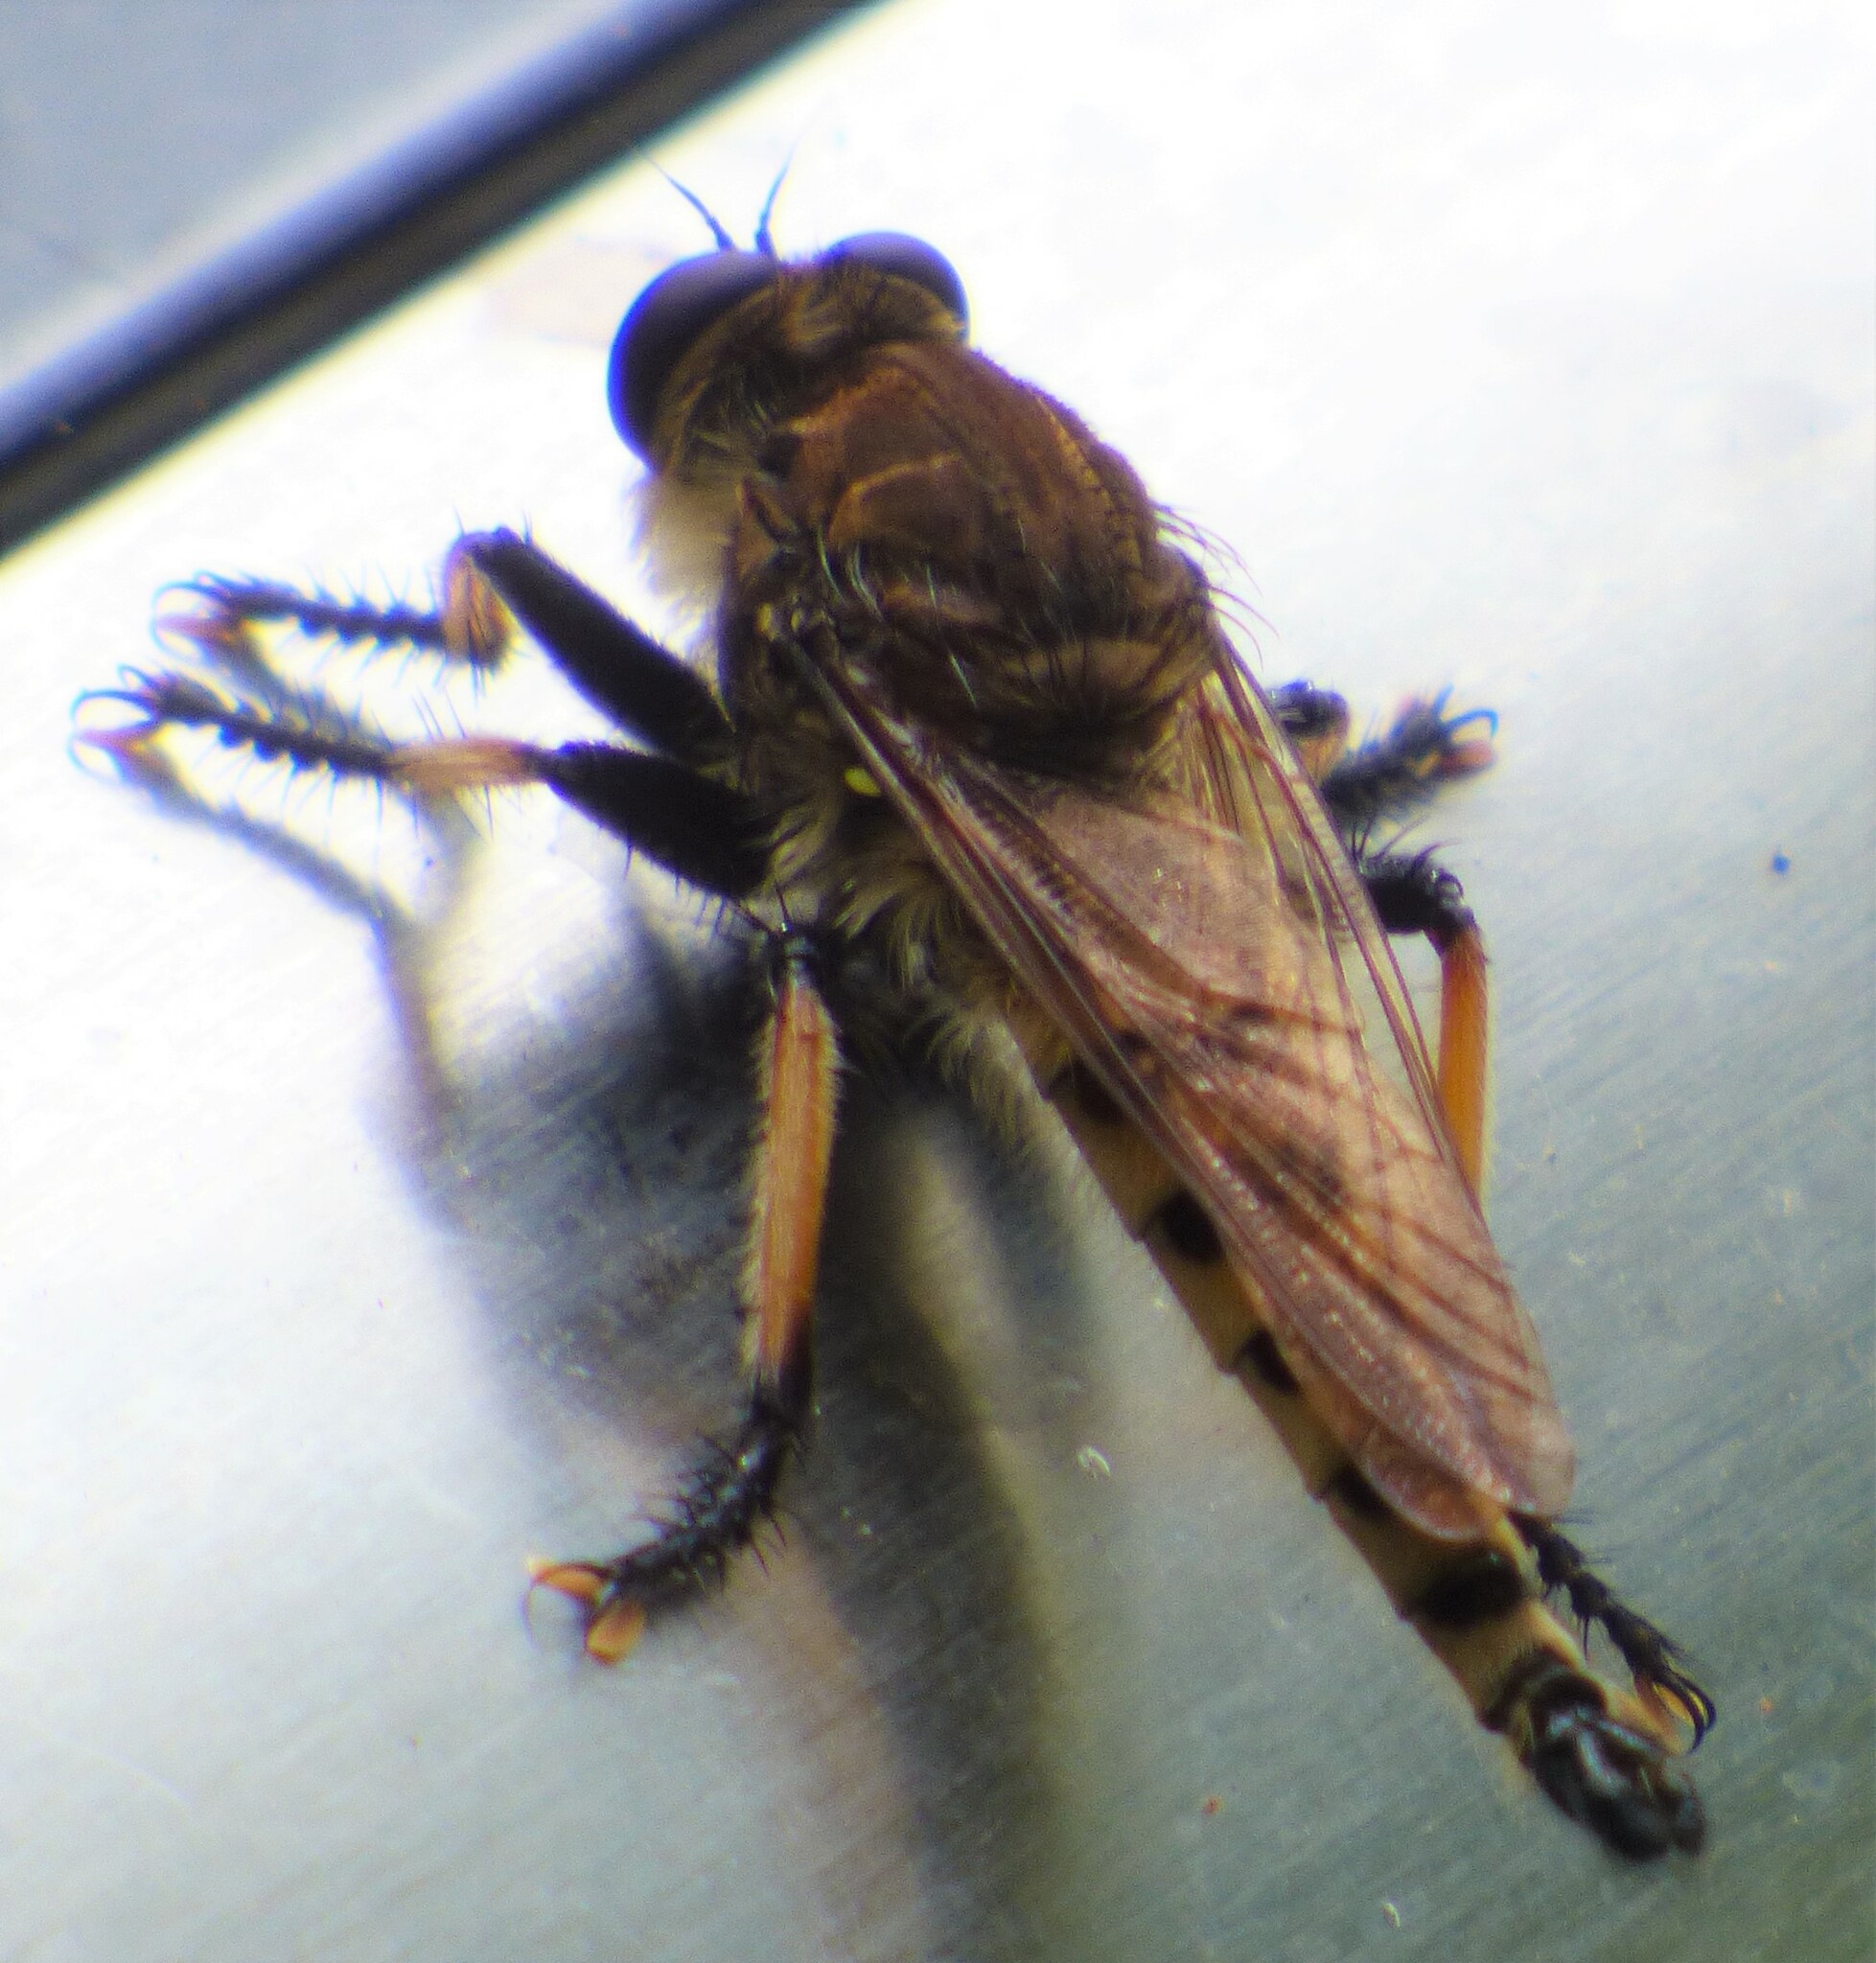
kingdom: Animalia
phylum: Arthropoda
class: Insecta
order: Diptera
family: Asilidae
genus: Promachus
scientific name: Promachus rufipes
